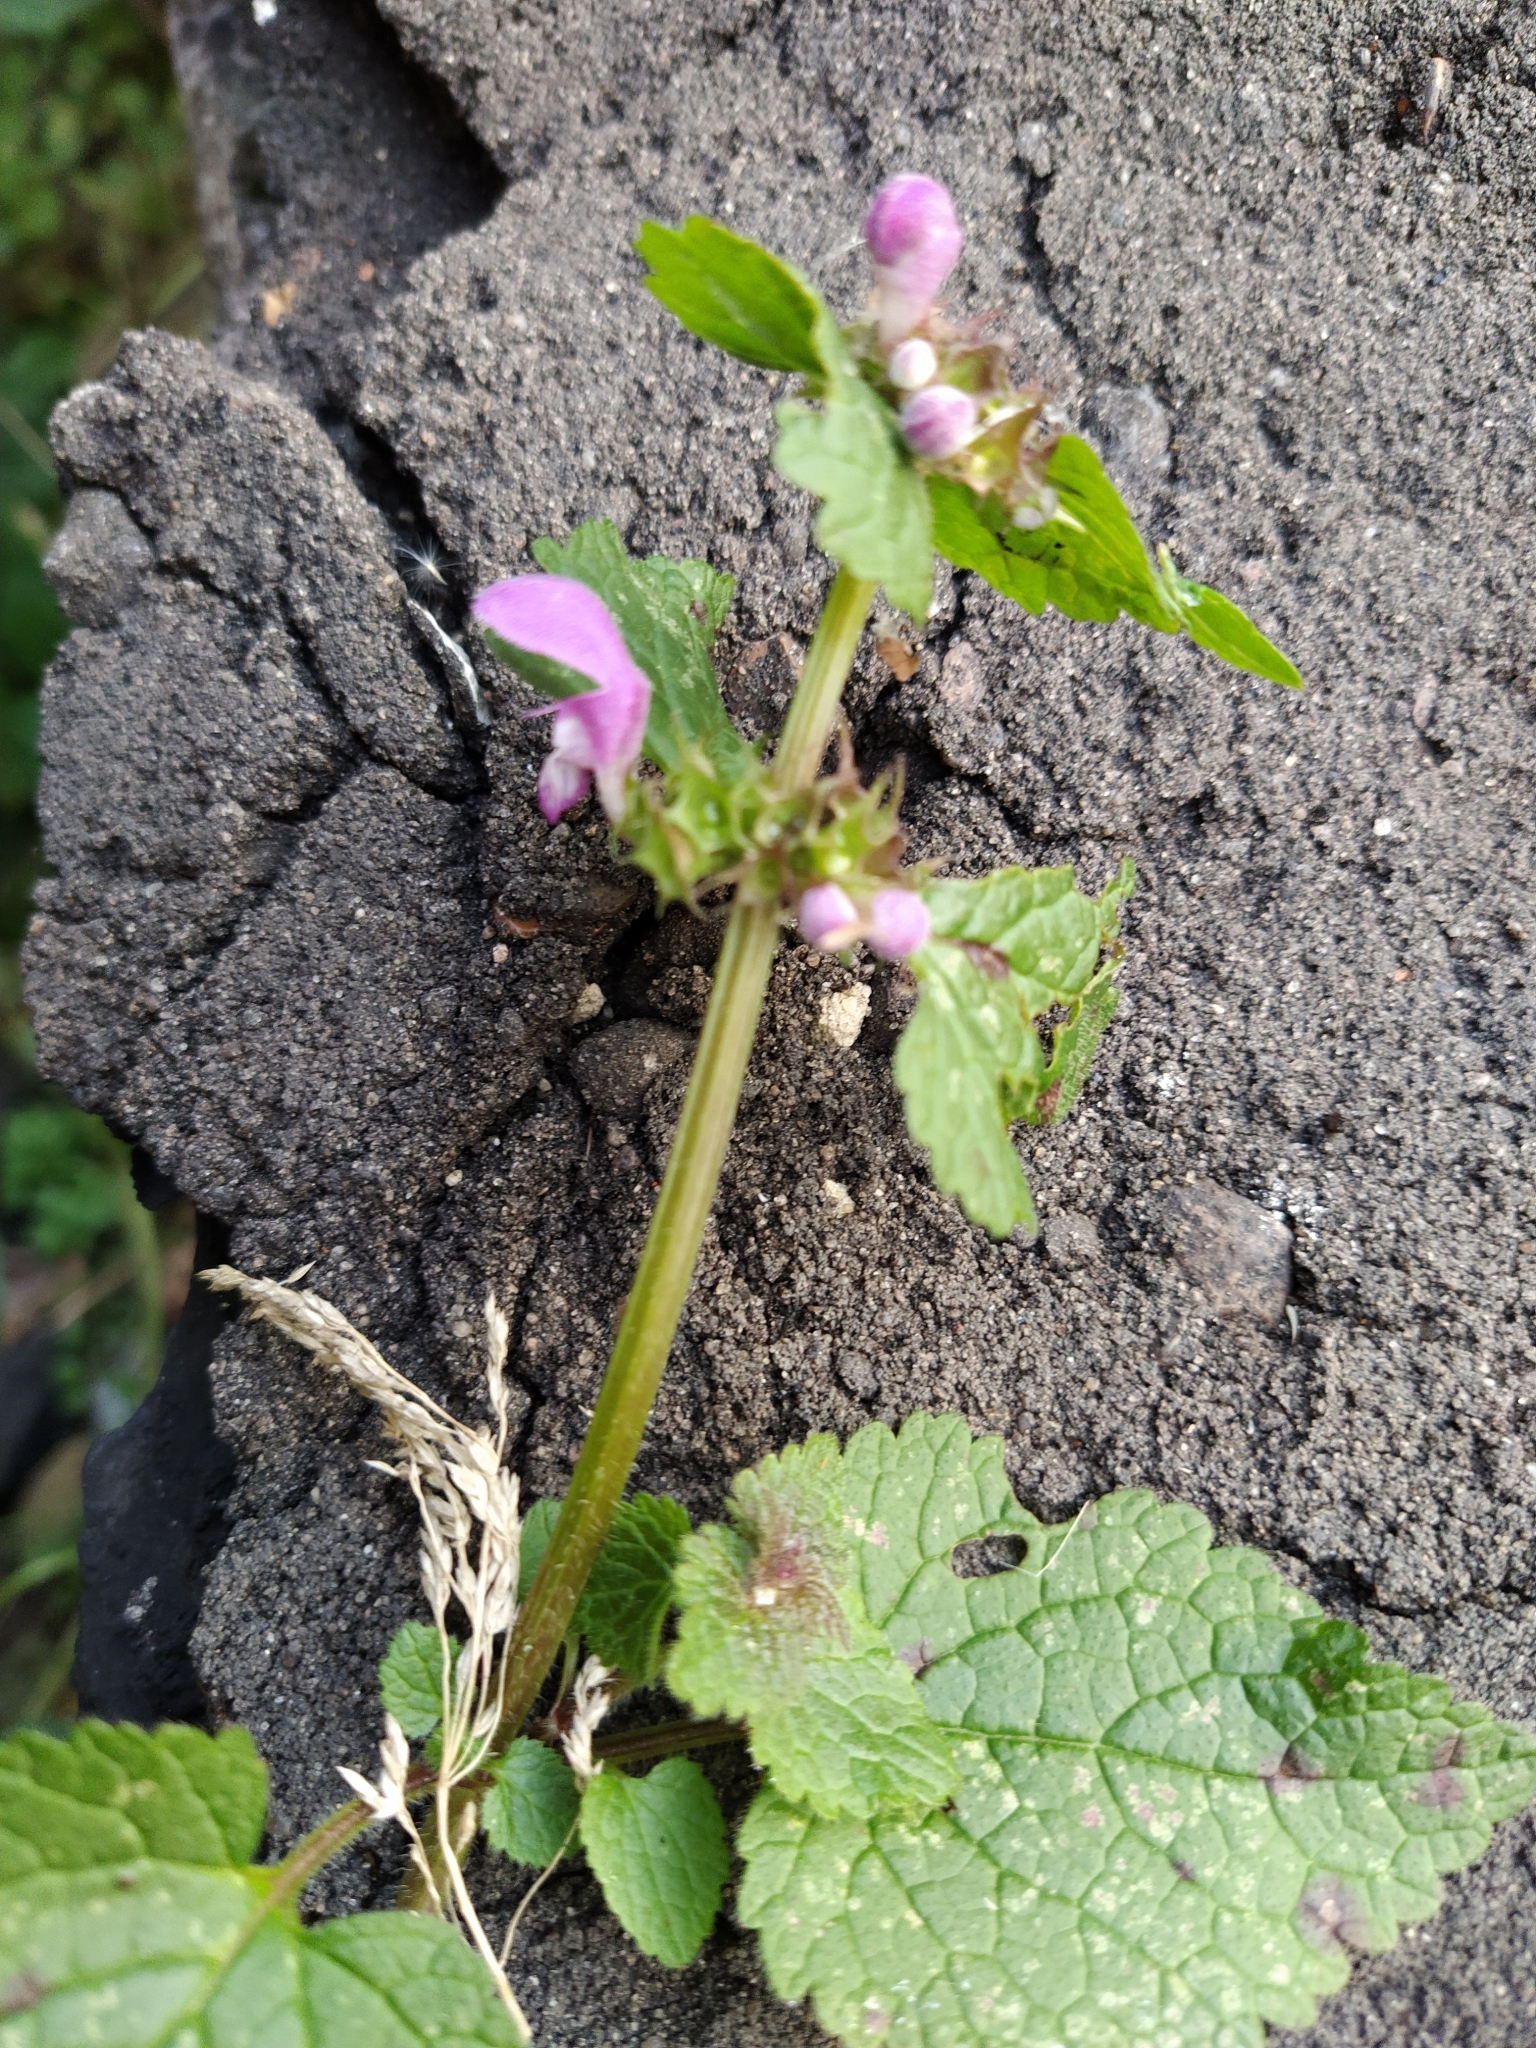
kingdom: Plantae
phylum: Tracheophyta
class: Magnoliopsida
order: Lamiales
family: Lamiaceae
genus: Lamium
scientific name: Lamium maculatum
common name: Spotted dead-nettle
